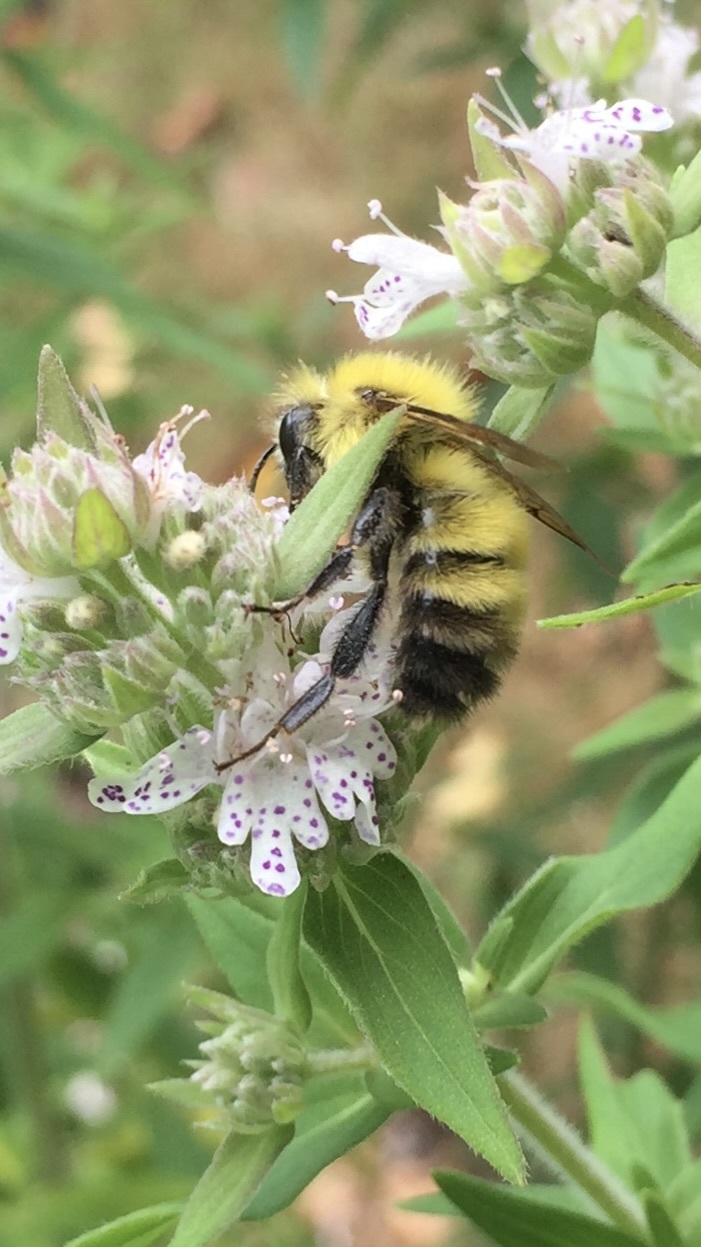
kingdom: Animalia
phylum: Arthropoda
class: Insecta
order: Hymenoptera
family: Apidae
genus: Bombus
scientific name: Bombus perplexus
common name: Confusing bumble bee
